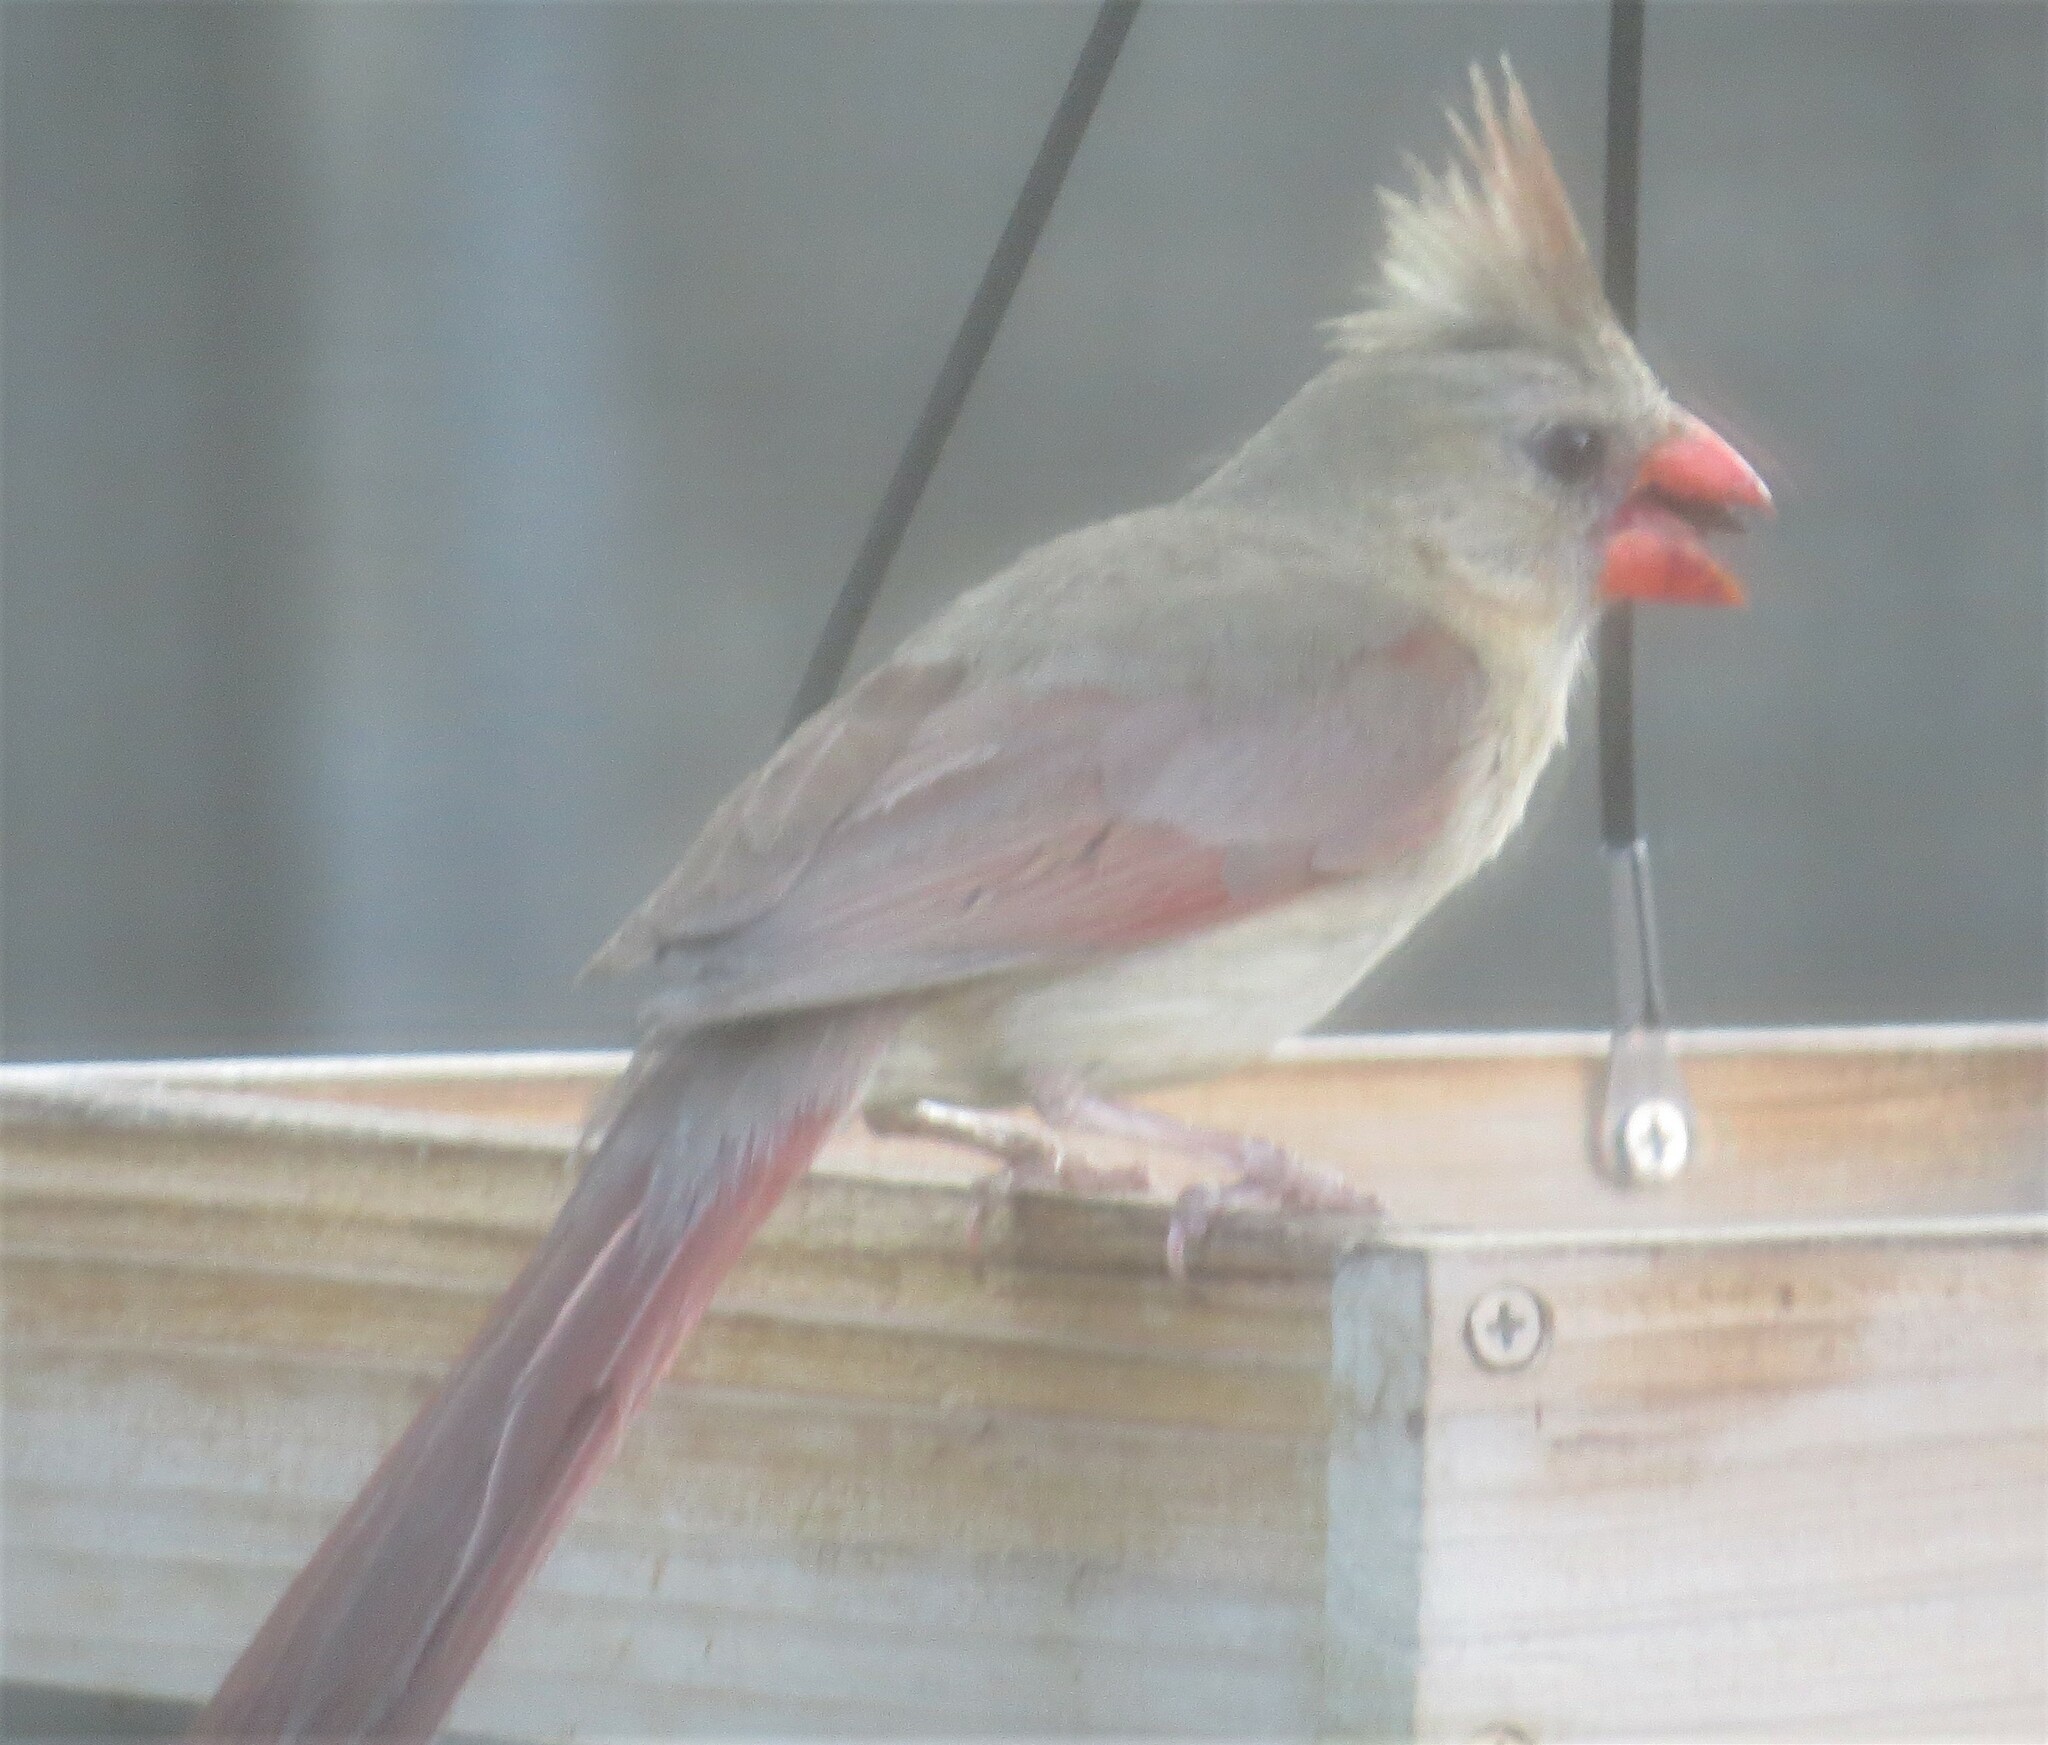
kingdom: Animalia
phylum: Chordata
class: Aves
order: Passeriformes
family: Cardinalidae
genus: Cardinalis
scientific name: Cardinalis cardinalis
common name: Northern cardinal
